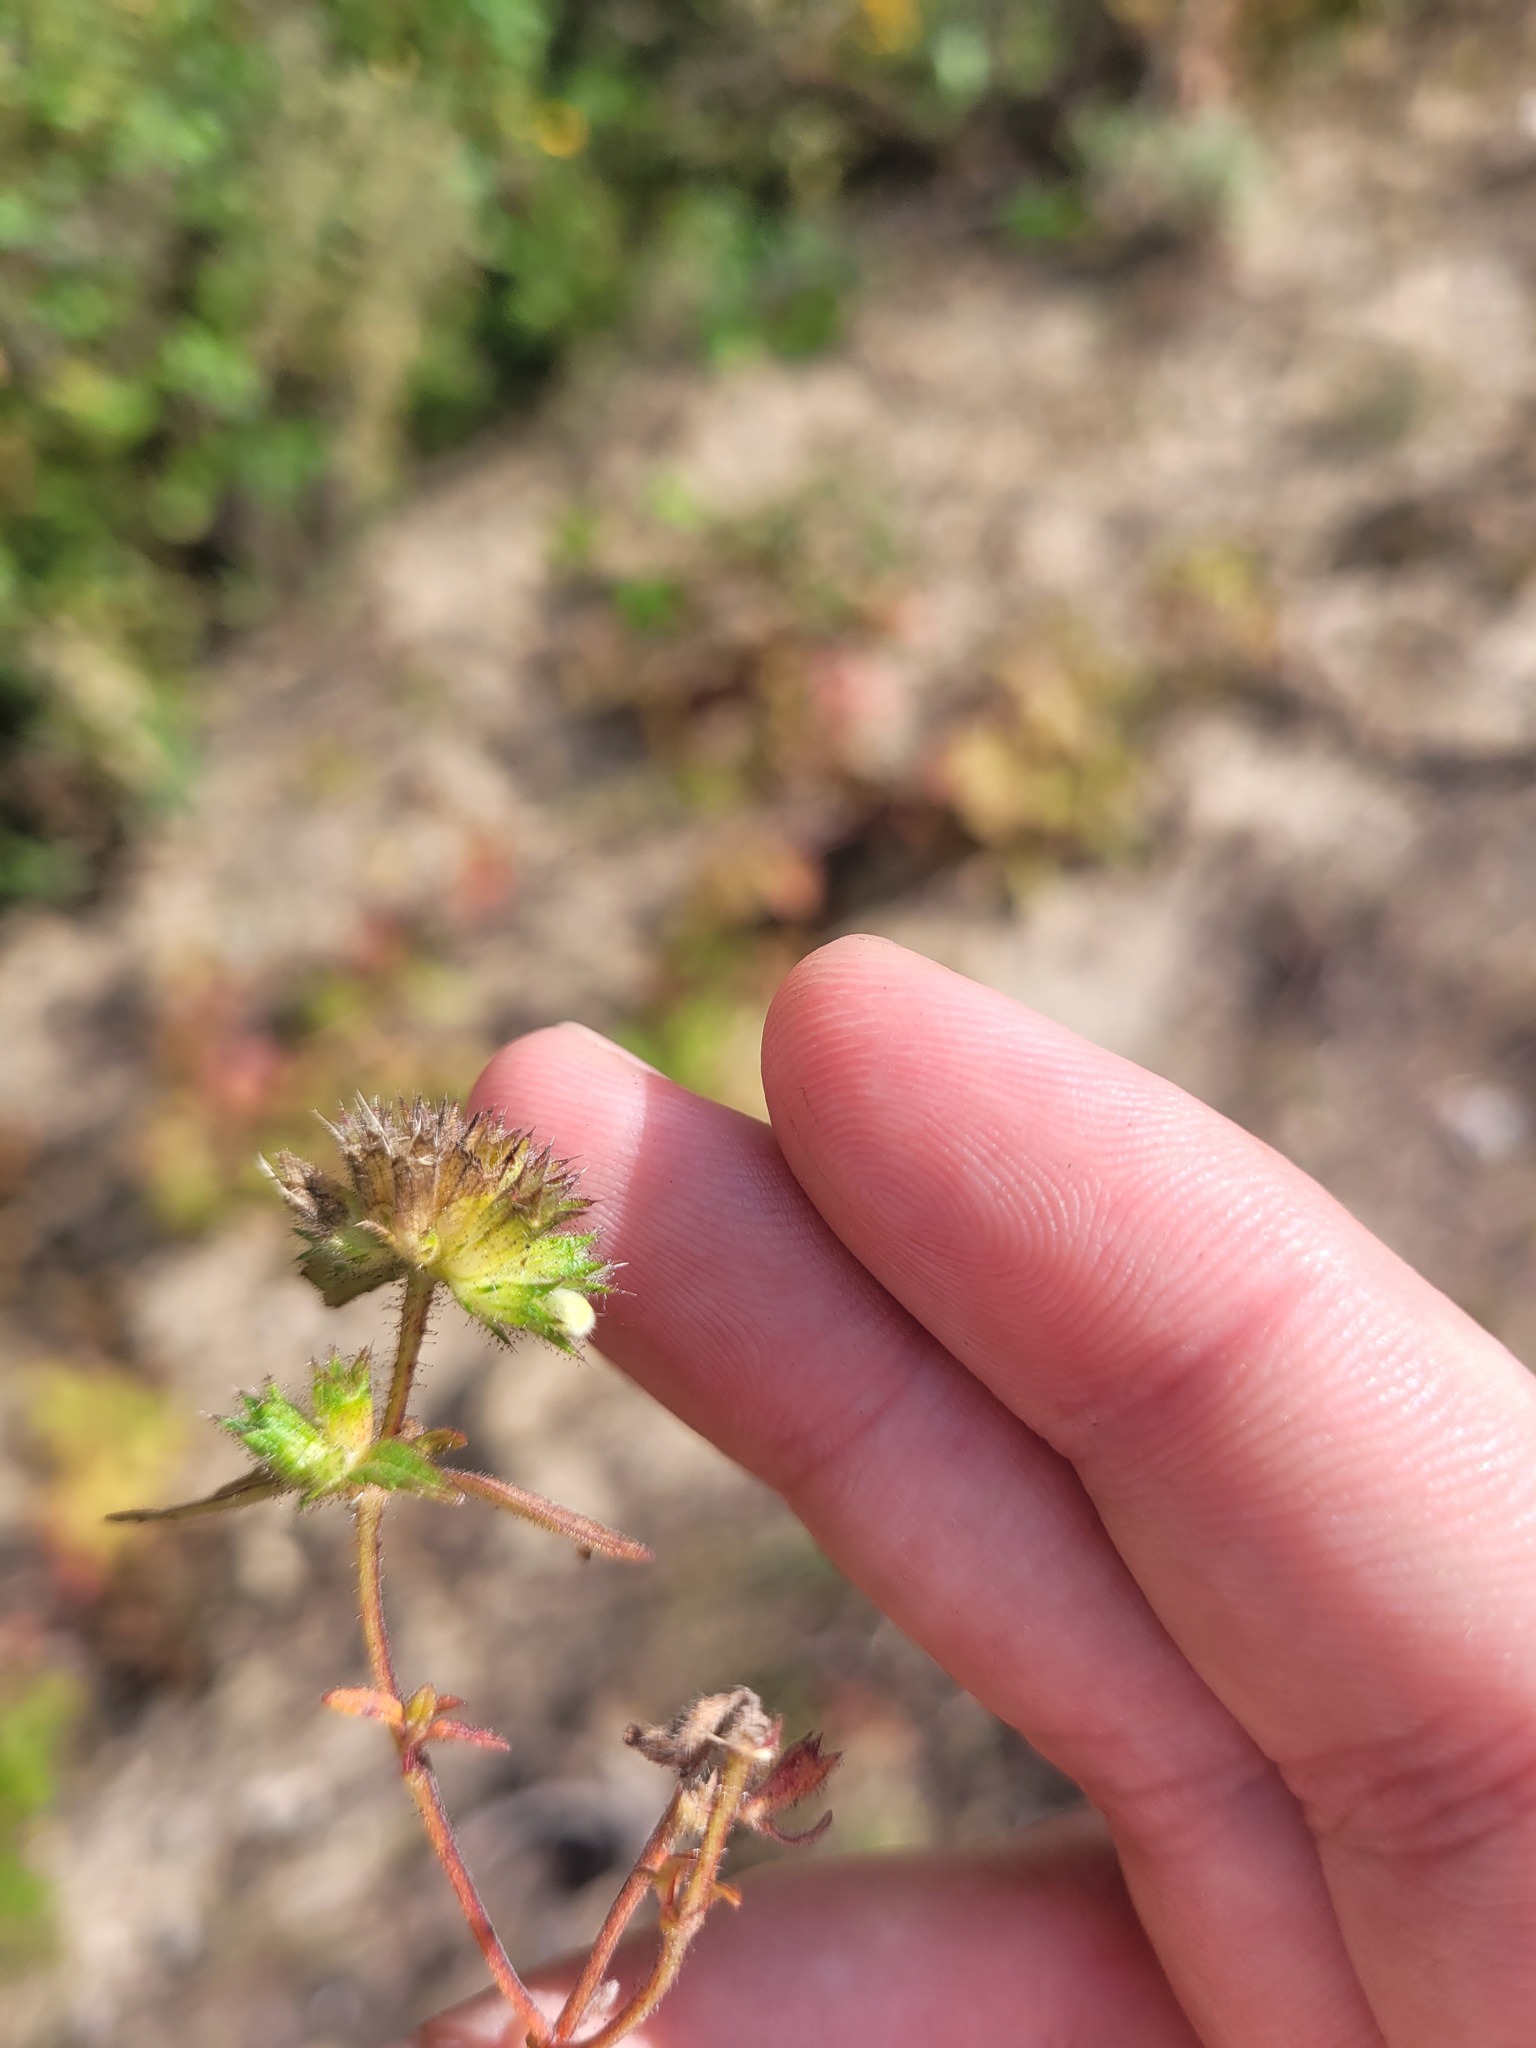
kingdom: Plantae
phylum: Tracheophyta
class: Magnoliopsida
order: Lamiales
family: Lamiaceae
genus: Galeopsis
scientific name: Galeopsis ladanum
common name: Broad-leaved hemp-nettle
